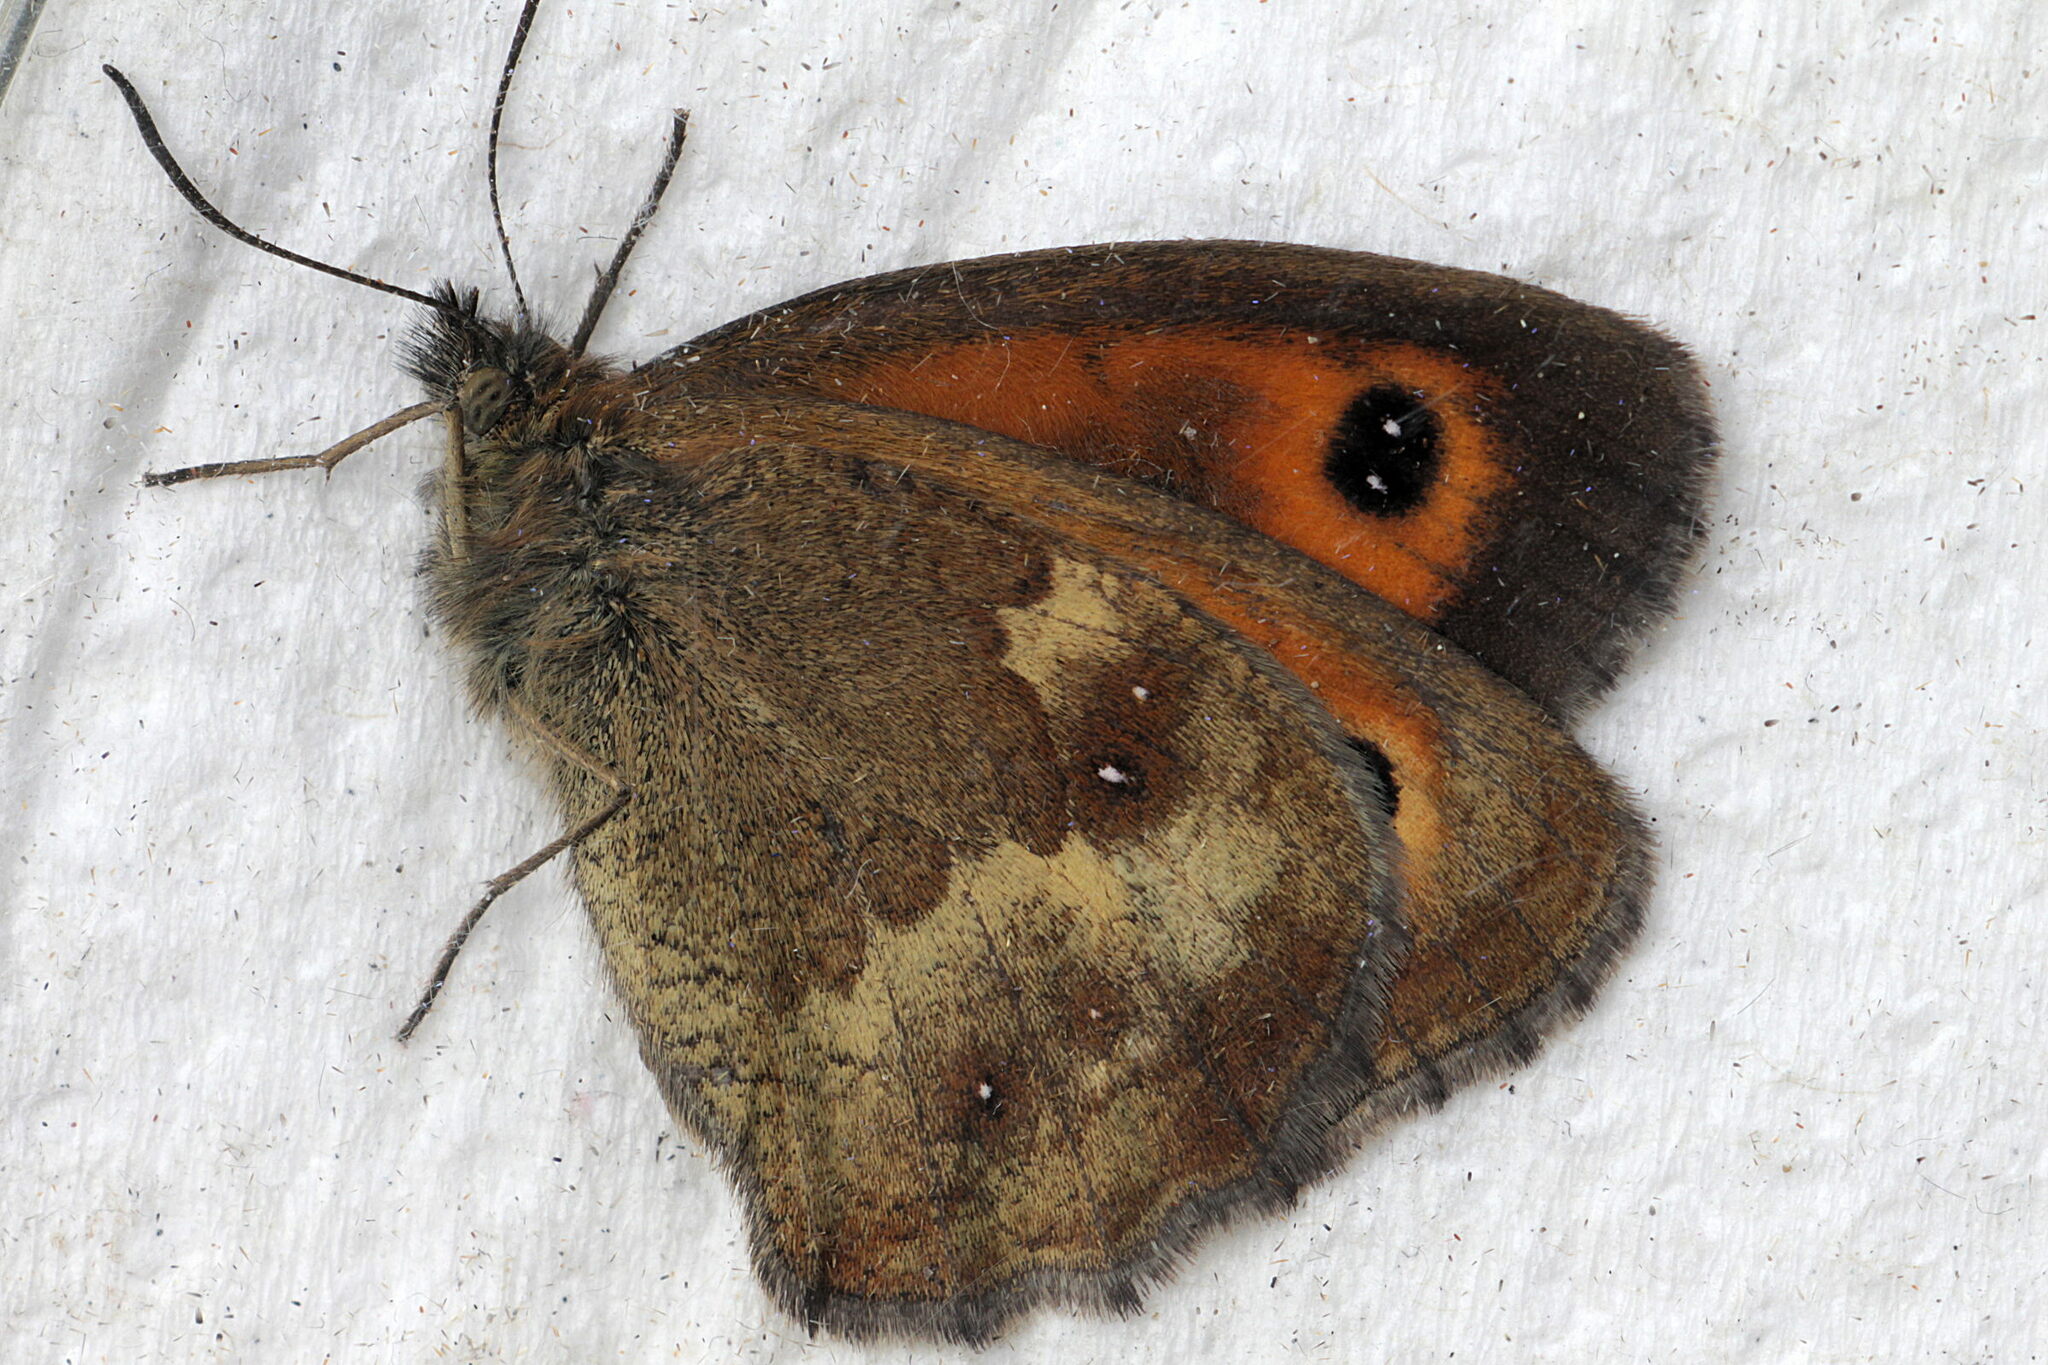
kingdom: Animalia
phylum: Arthropoda
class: Insecta
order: Lepidoptera
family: Nymphalidae
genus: Pyronia
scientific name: Pyronia tithonus
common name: Gatekeeper
